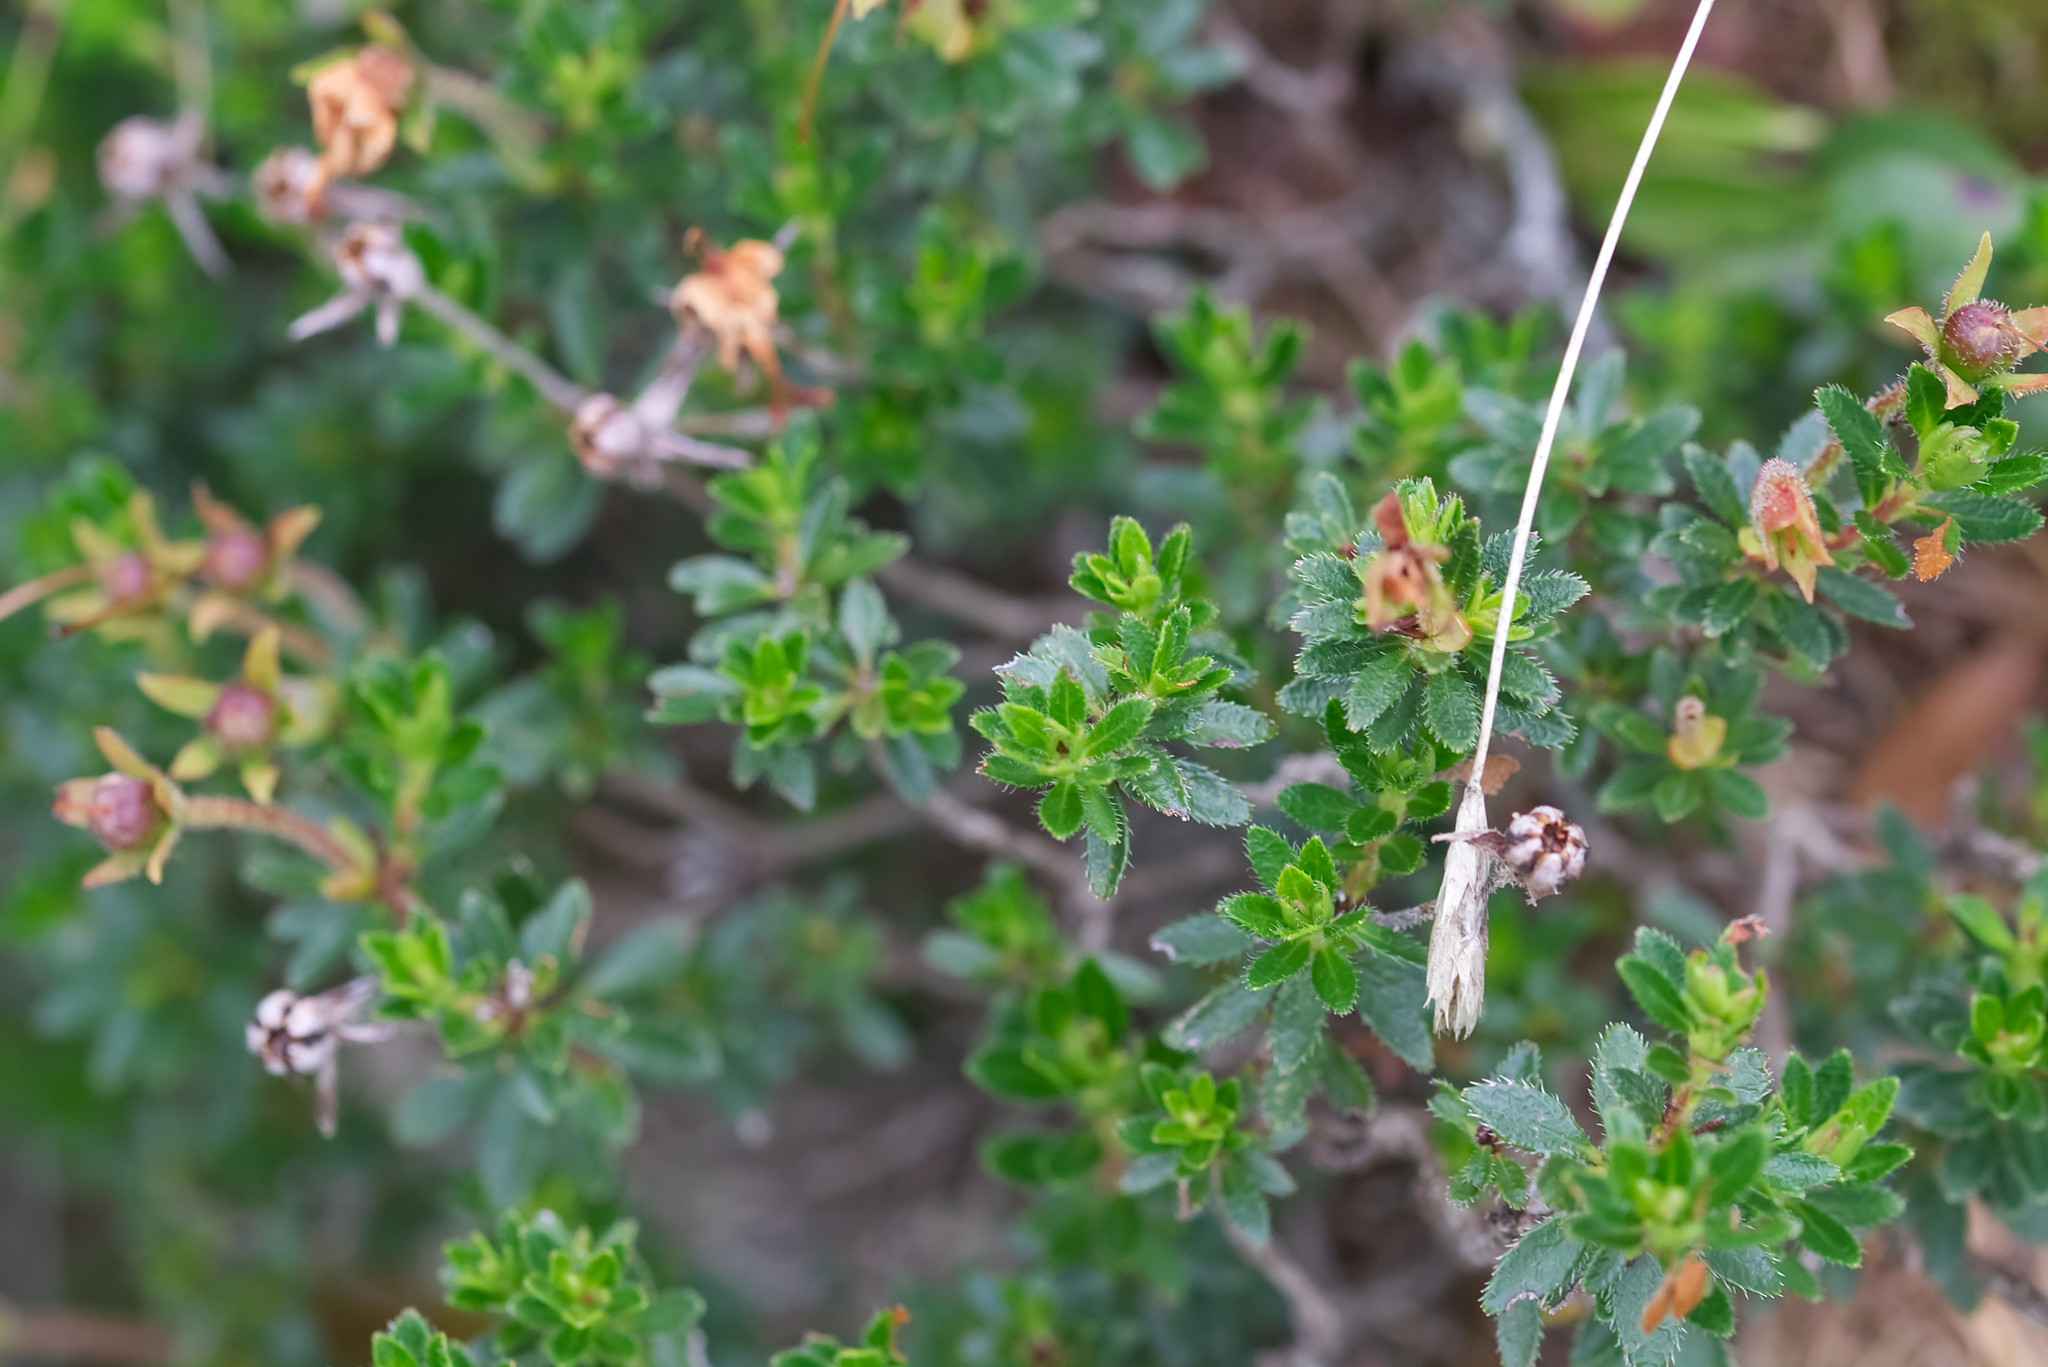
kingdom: Plantae
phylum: Tracheophyta
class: Magnoliopsida
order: Ericales
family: Ericaceae
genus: Rhodothamnus
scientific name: Rhodothamnus chamaecistus
